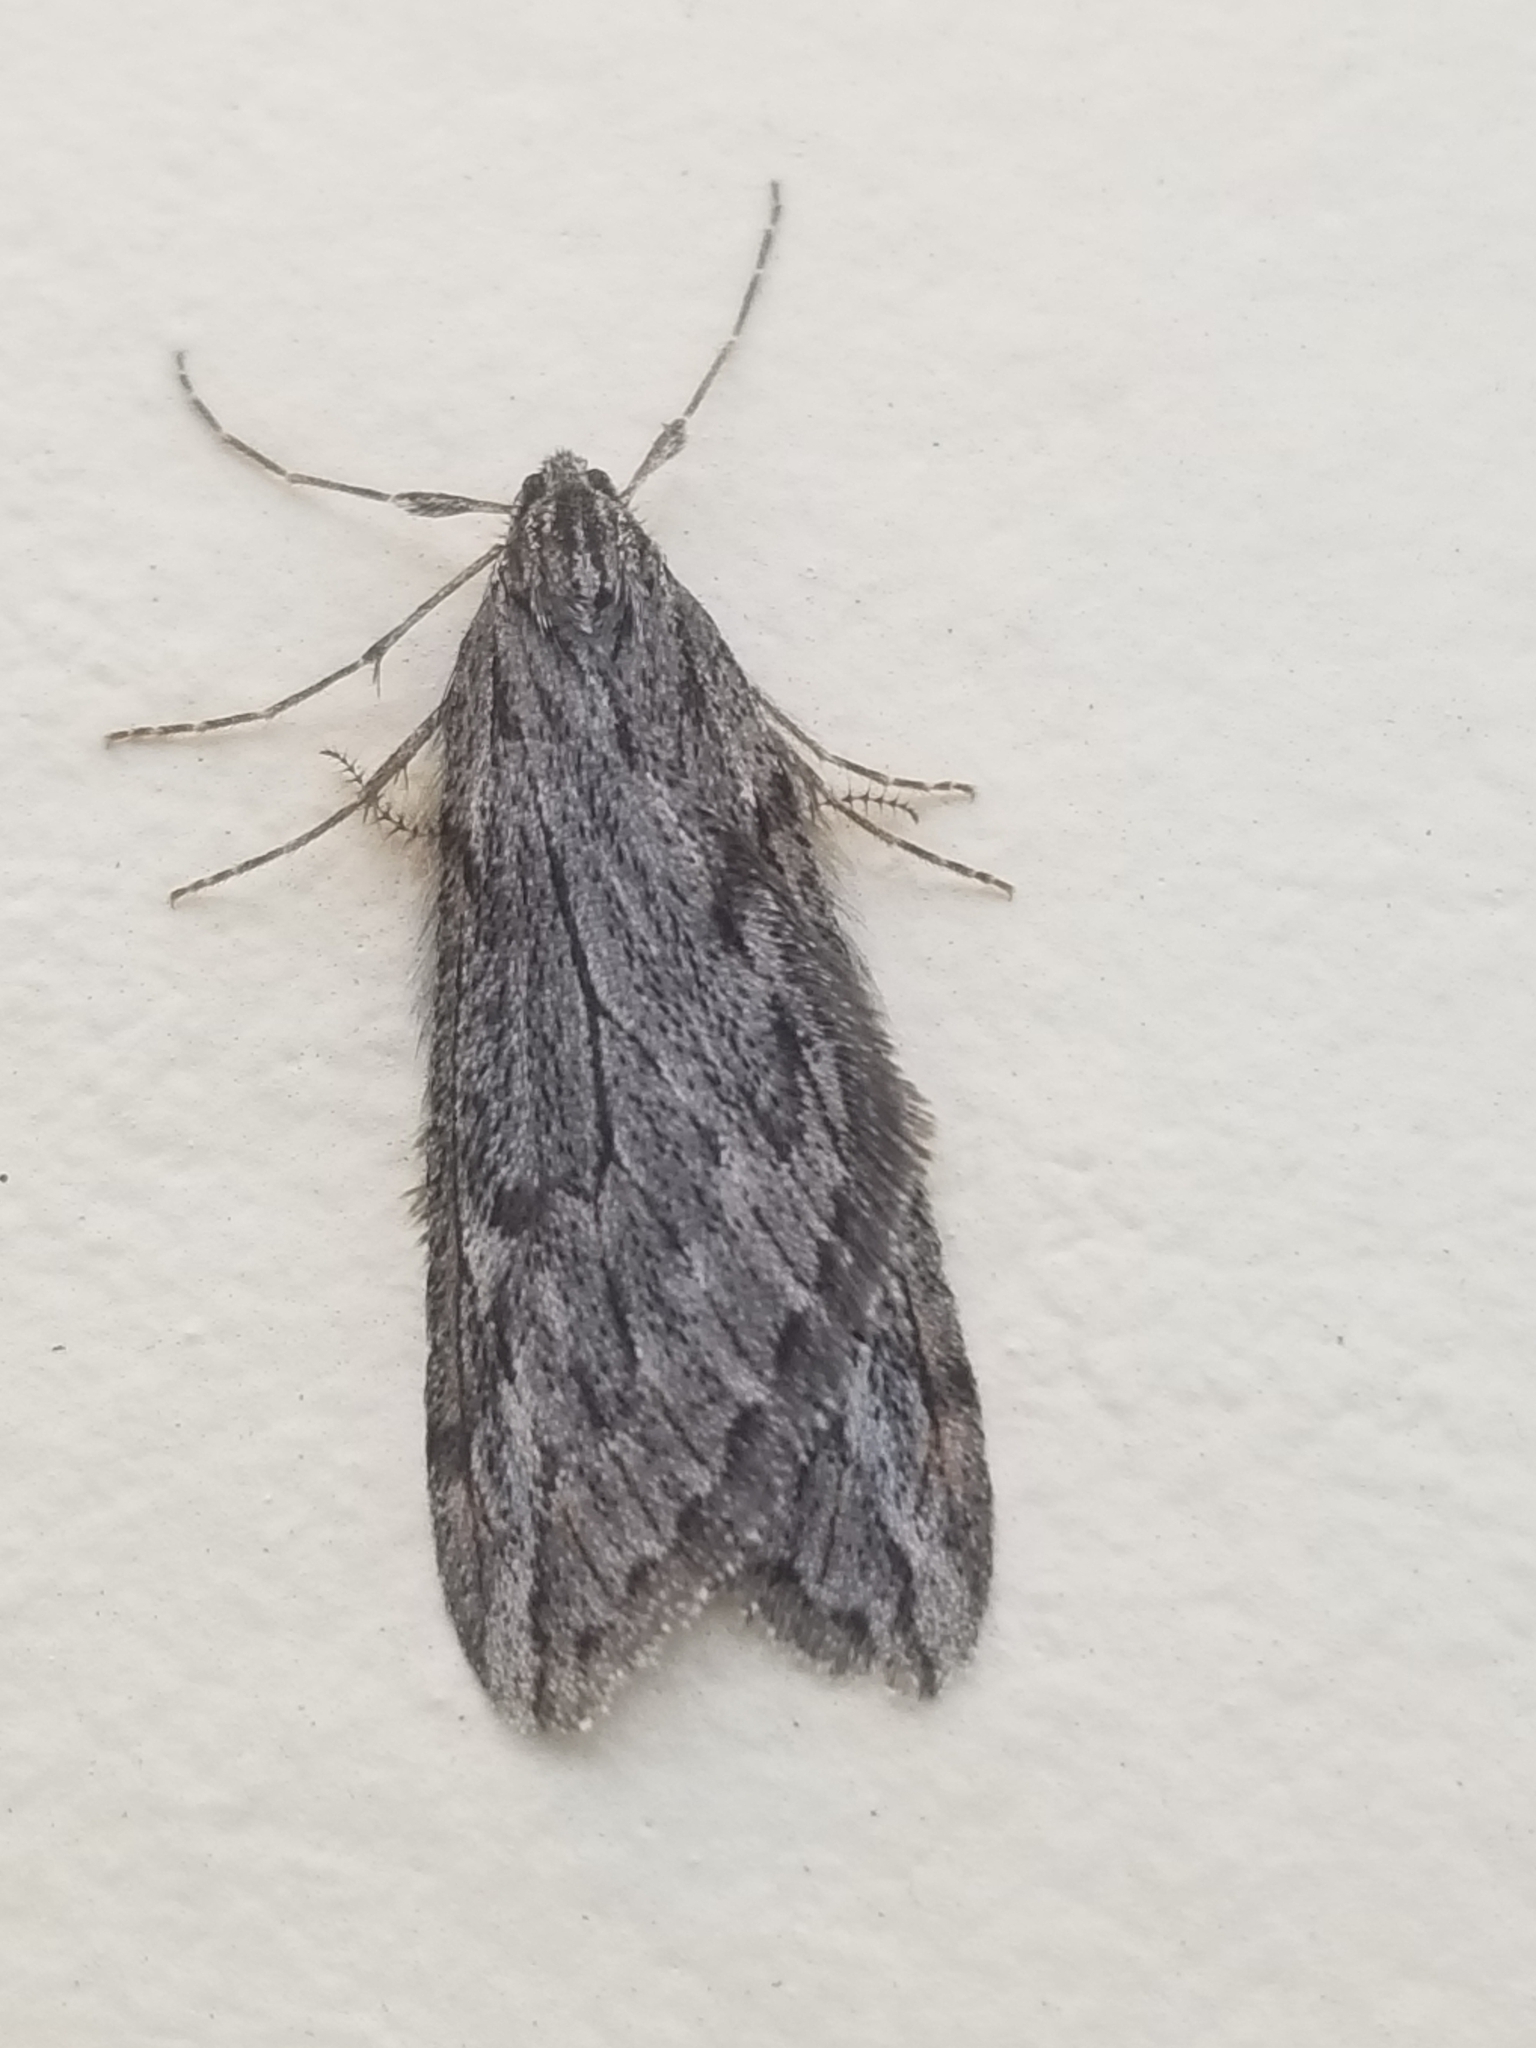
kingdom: Animalia
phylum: Arthropoda
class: Insecta
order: Lepidoptera
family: Geometridae
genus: Paleacrita
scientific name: Paleacrita longiciliata
